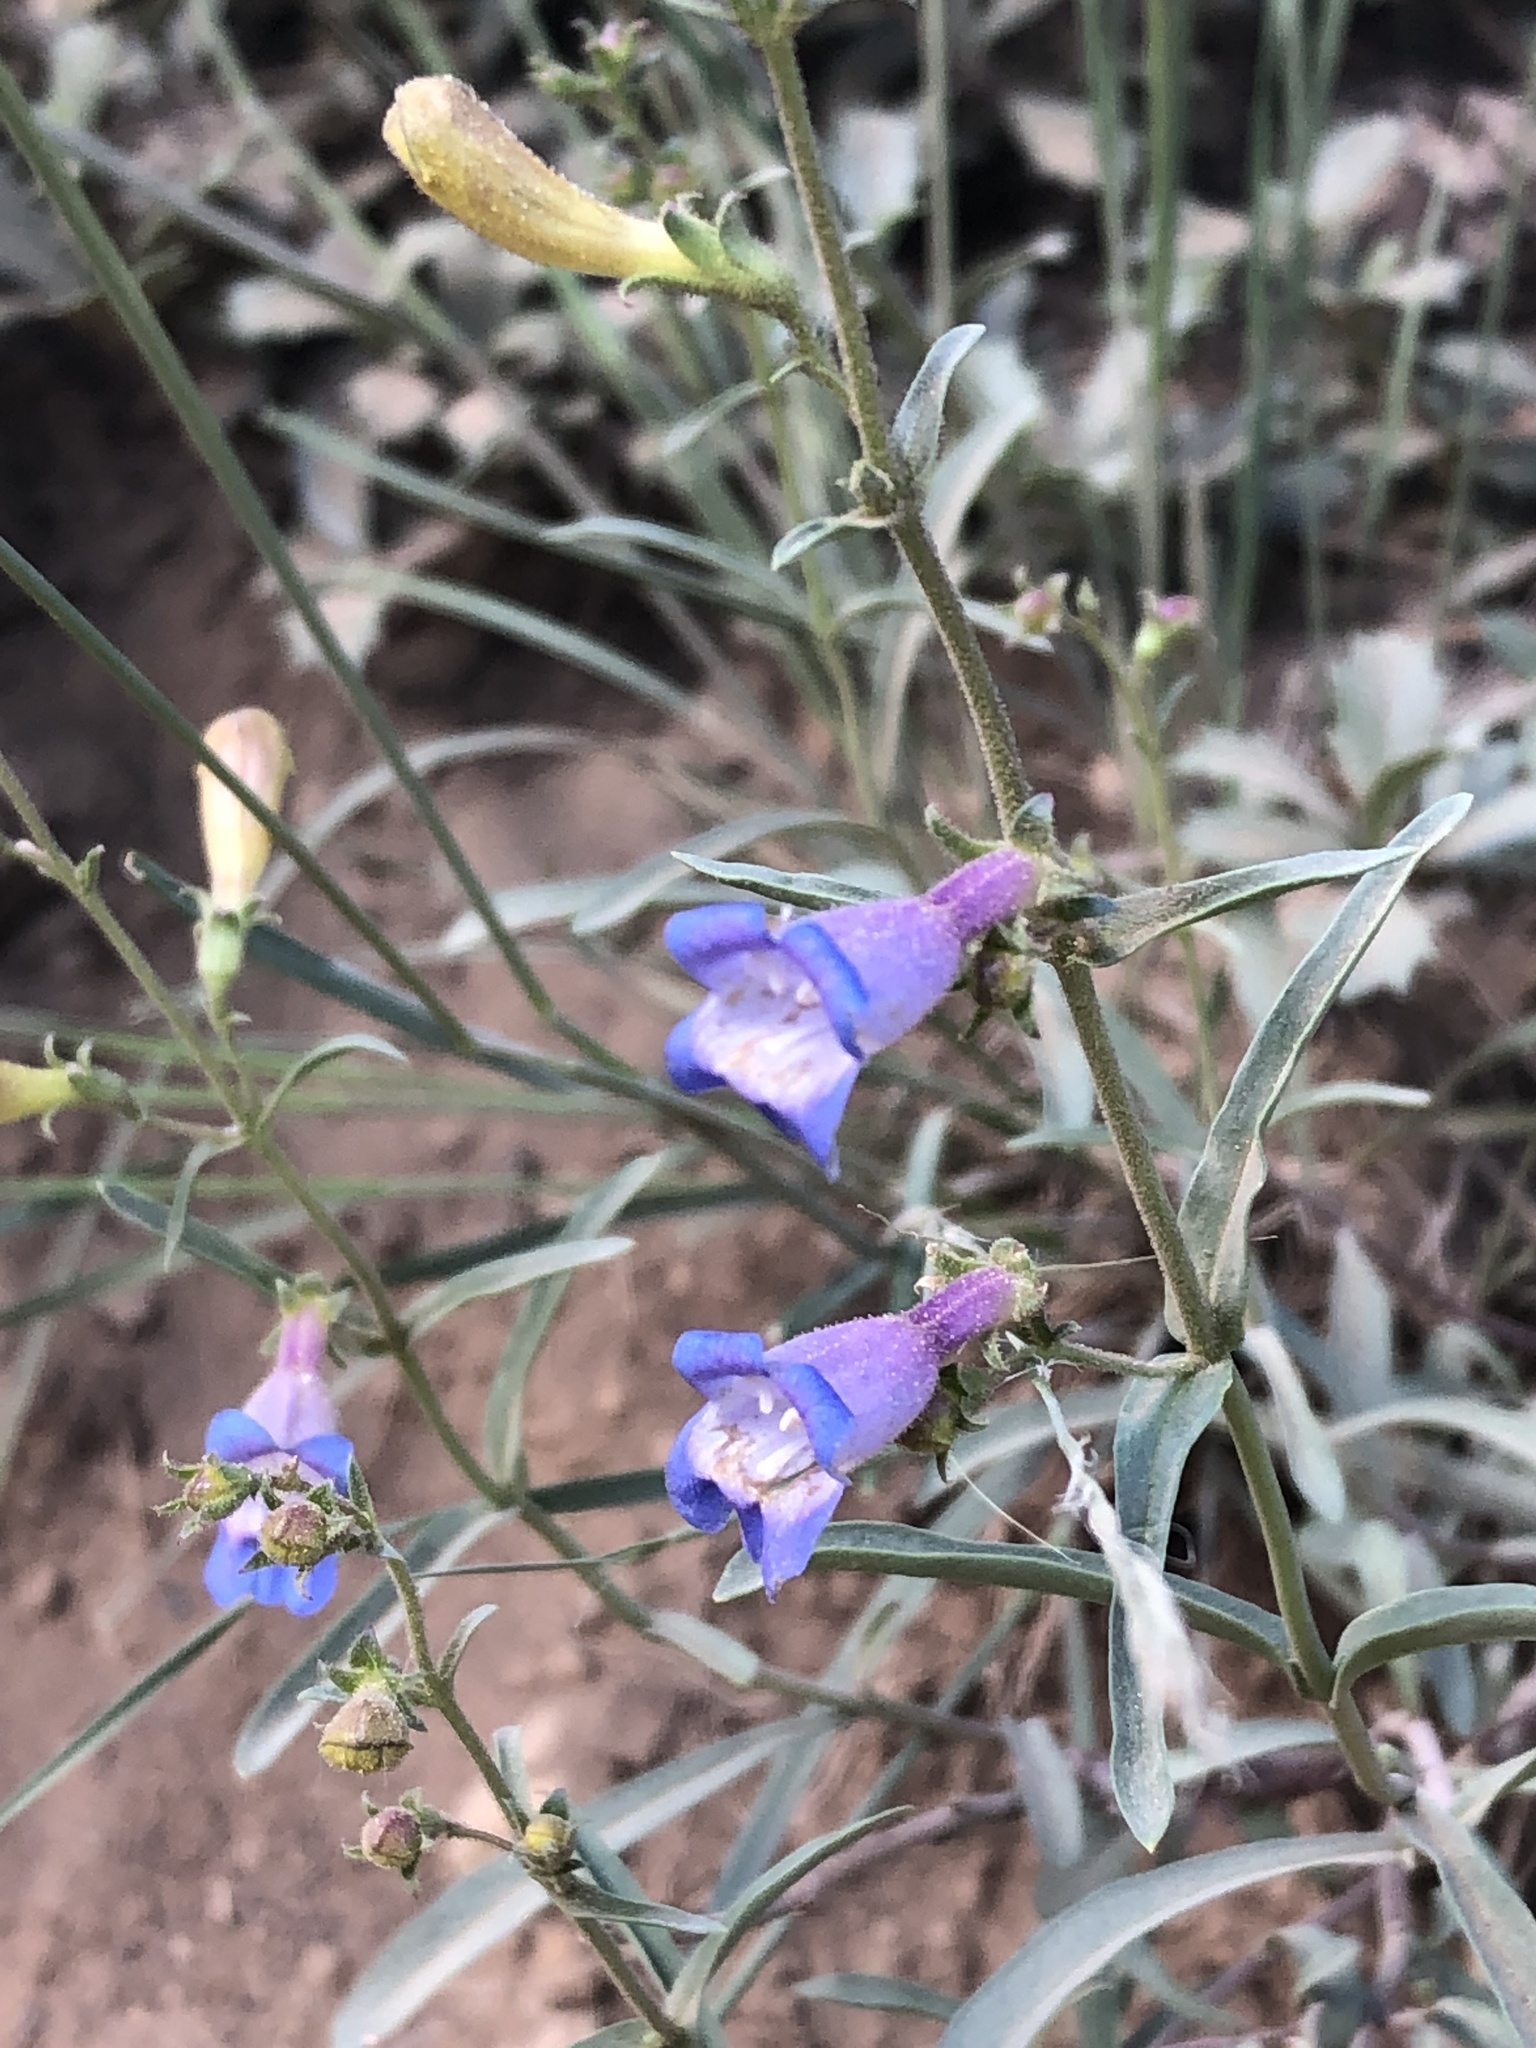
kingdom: Plantae
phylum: Tracheophyta
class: Magnoliopsida
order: Lamiales
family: Plantaginaceae
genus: Penstemon
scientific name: Penstemon laetus
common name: Gay penstemon
